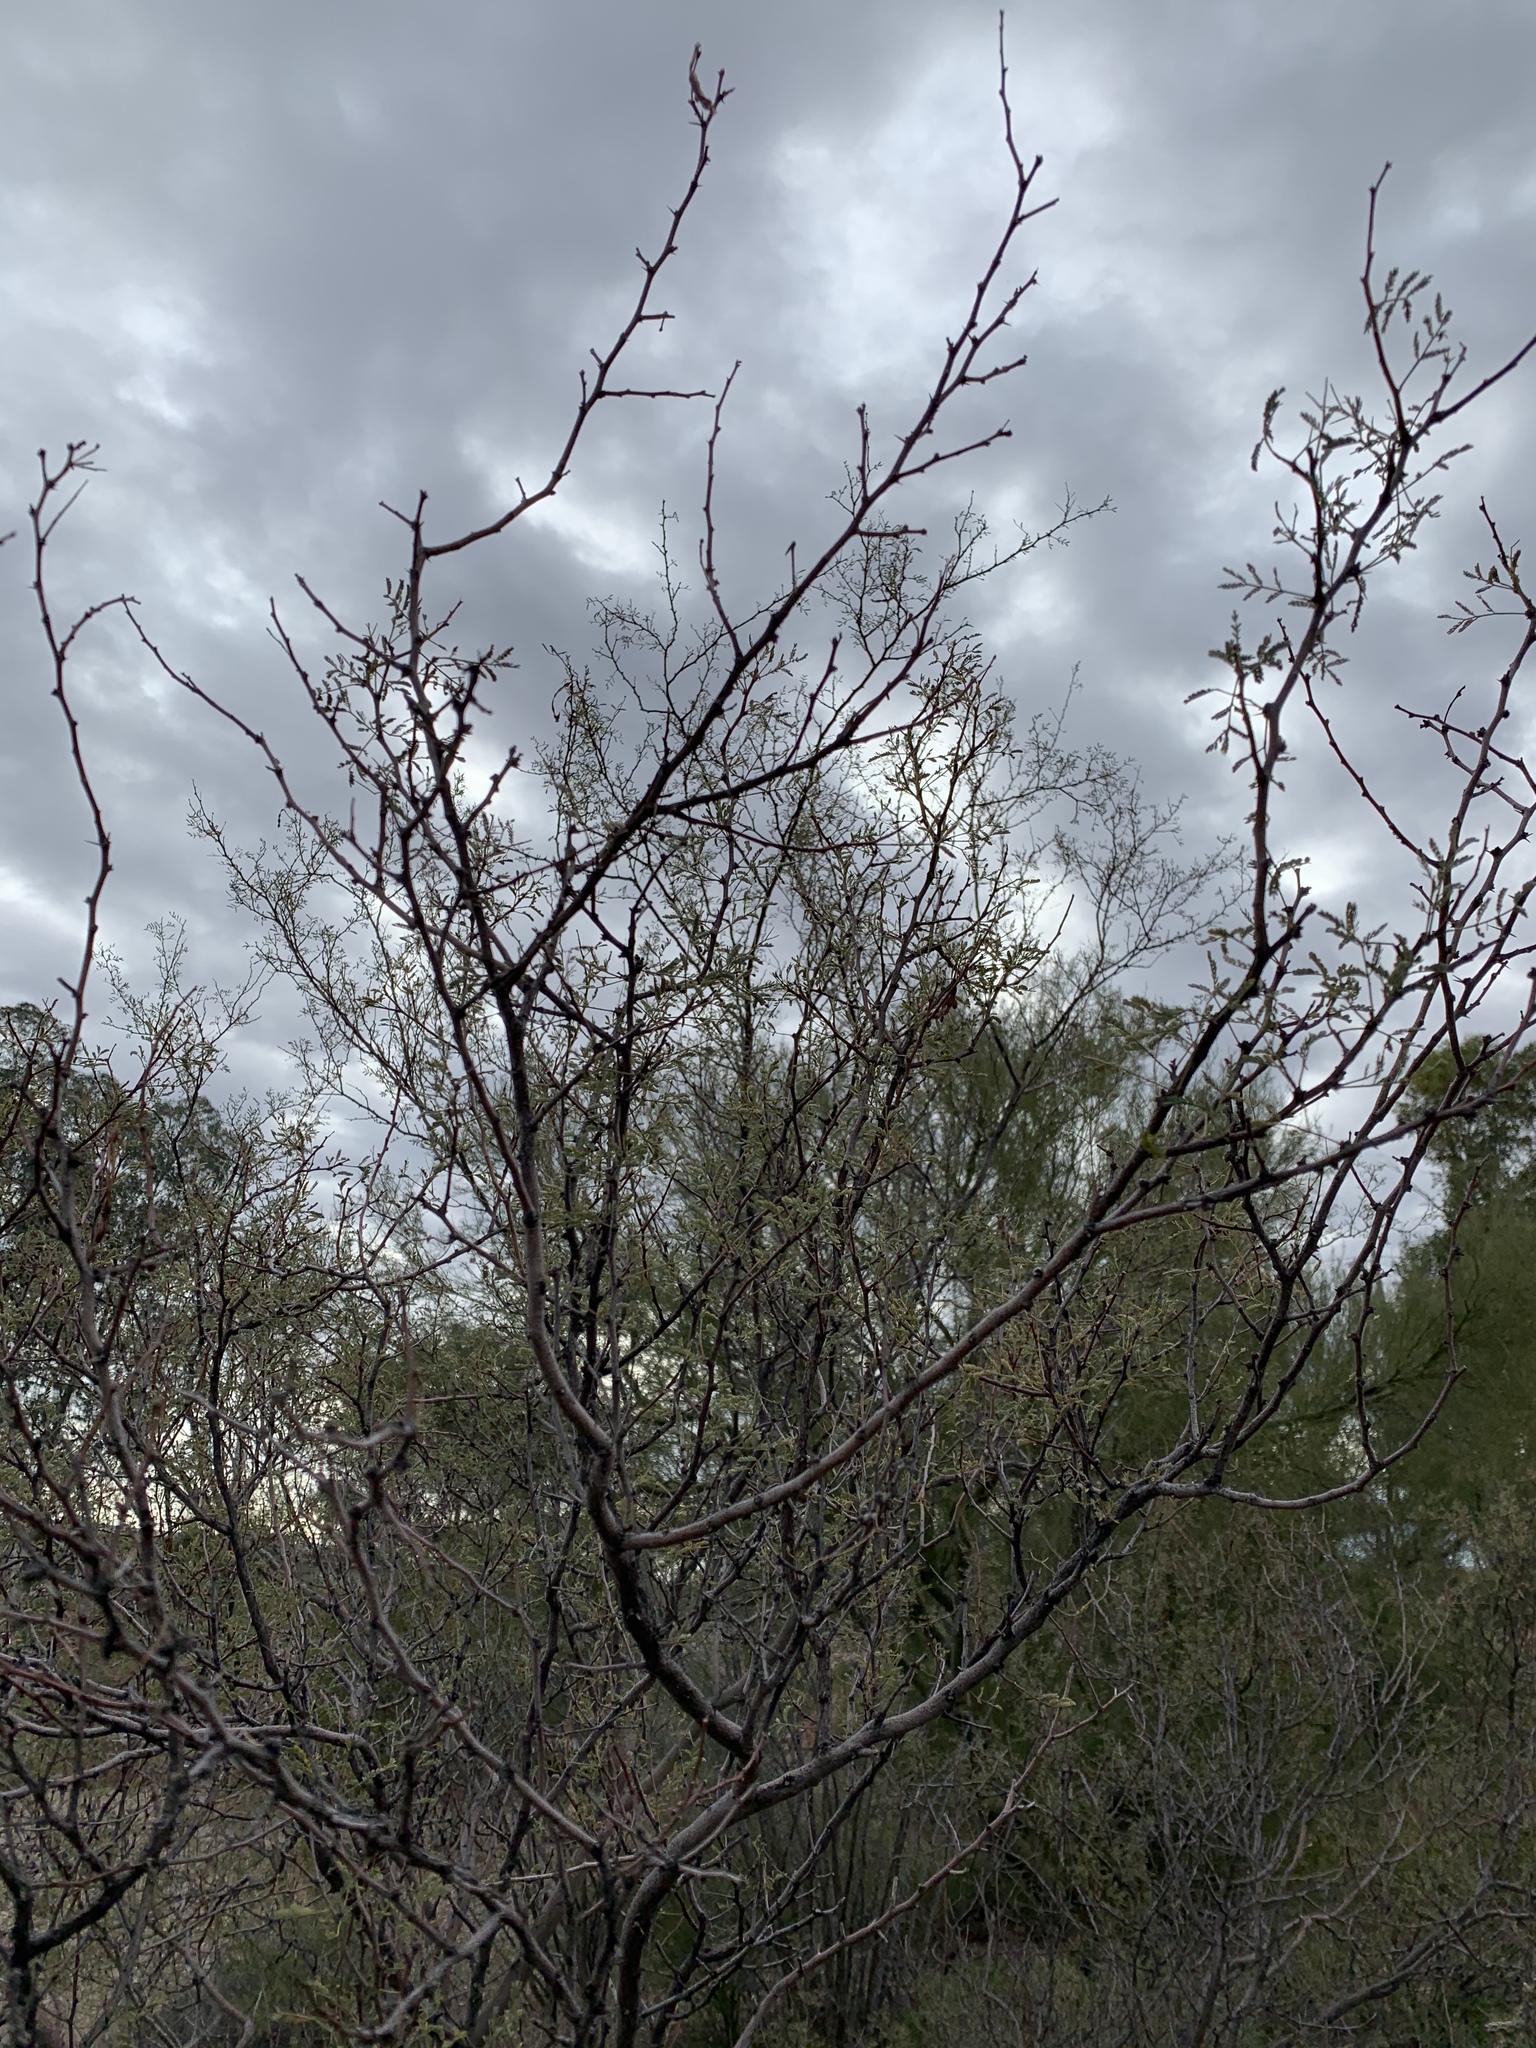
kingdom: Plantae
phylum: Tracheophyta
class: Magnoliopsida
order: Fabales
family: Fabaceae
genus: Vachellia
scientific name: Vachellia constricta
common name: Mescat acacia
